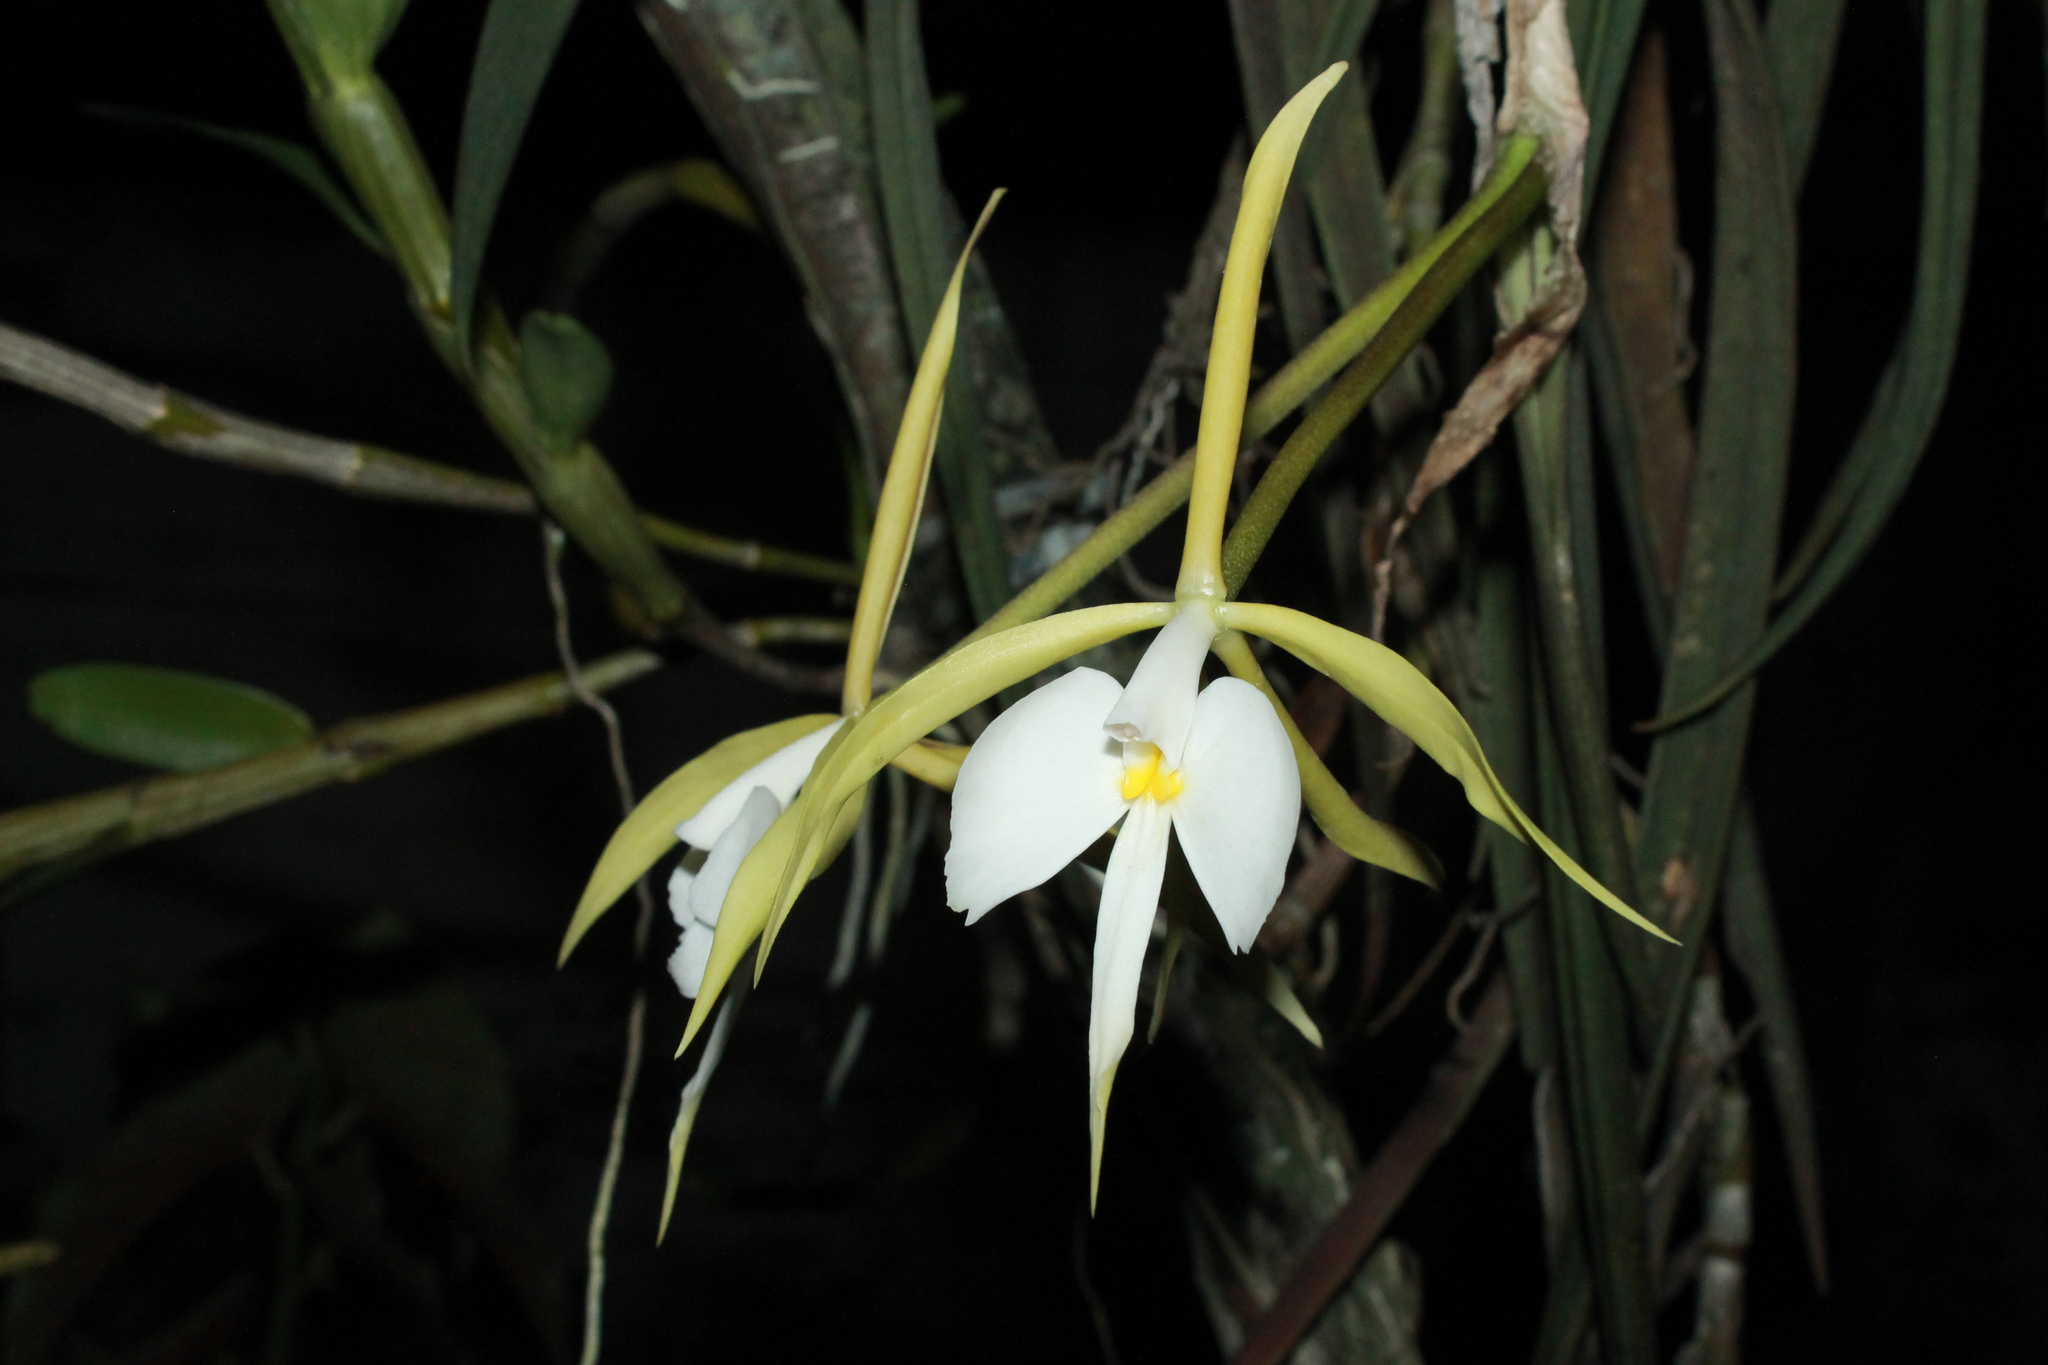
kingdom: Plantae
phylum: Tracheophyta
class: Liliopsida
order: Asparagales
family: Orchidaceae
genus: Epidendrum
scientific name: Epidendrum parkinsonianum
